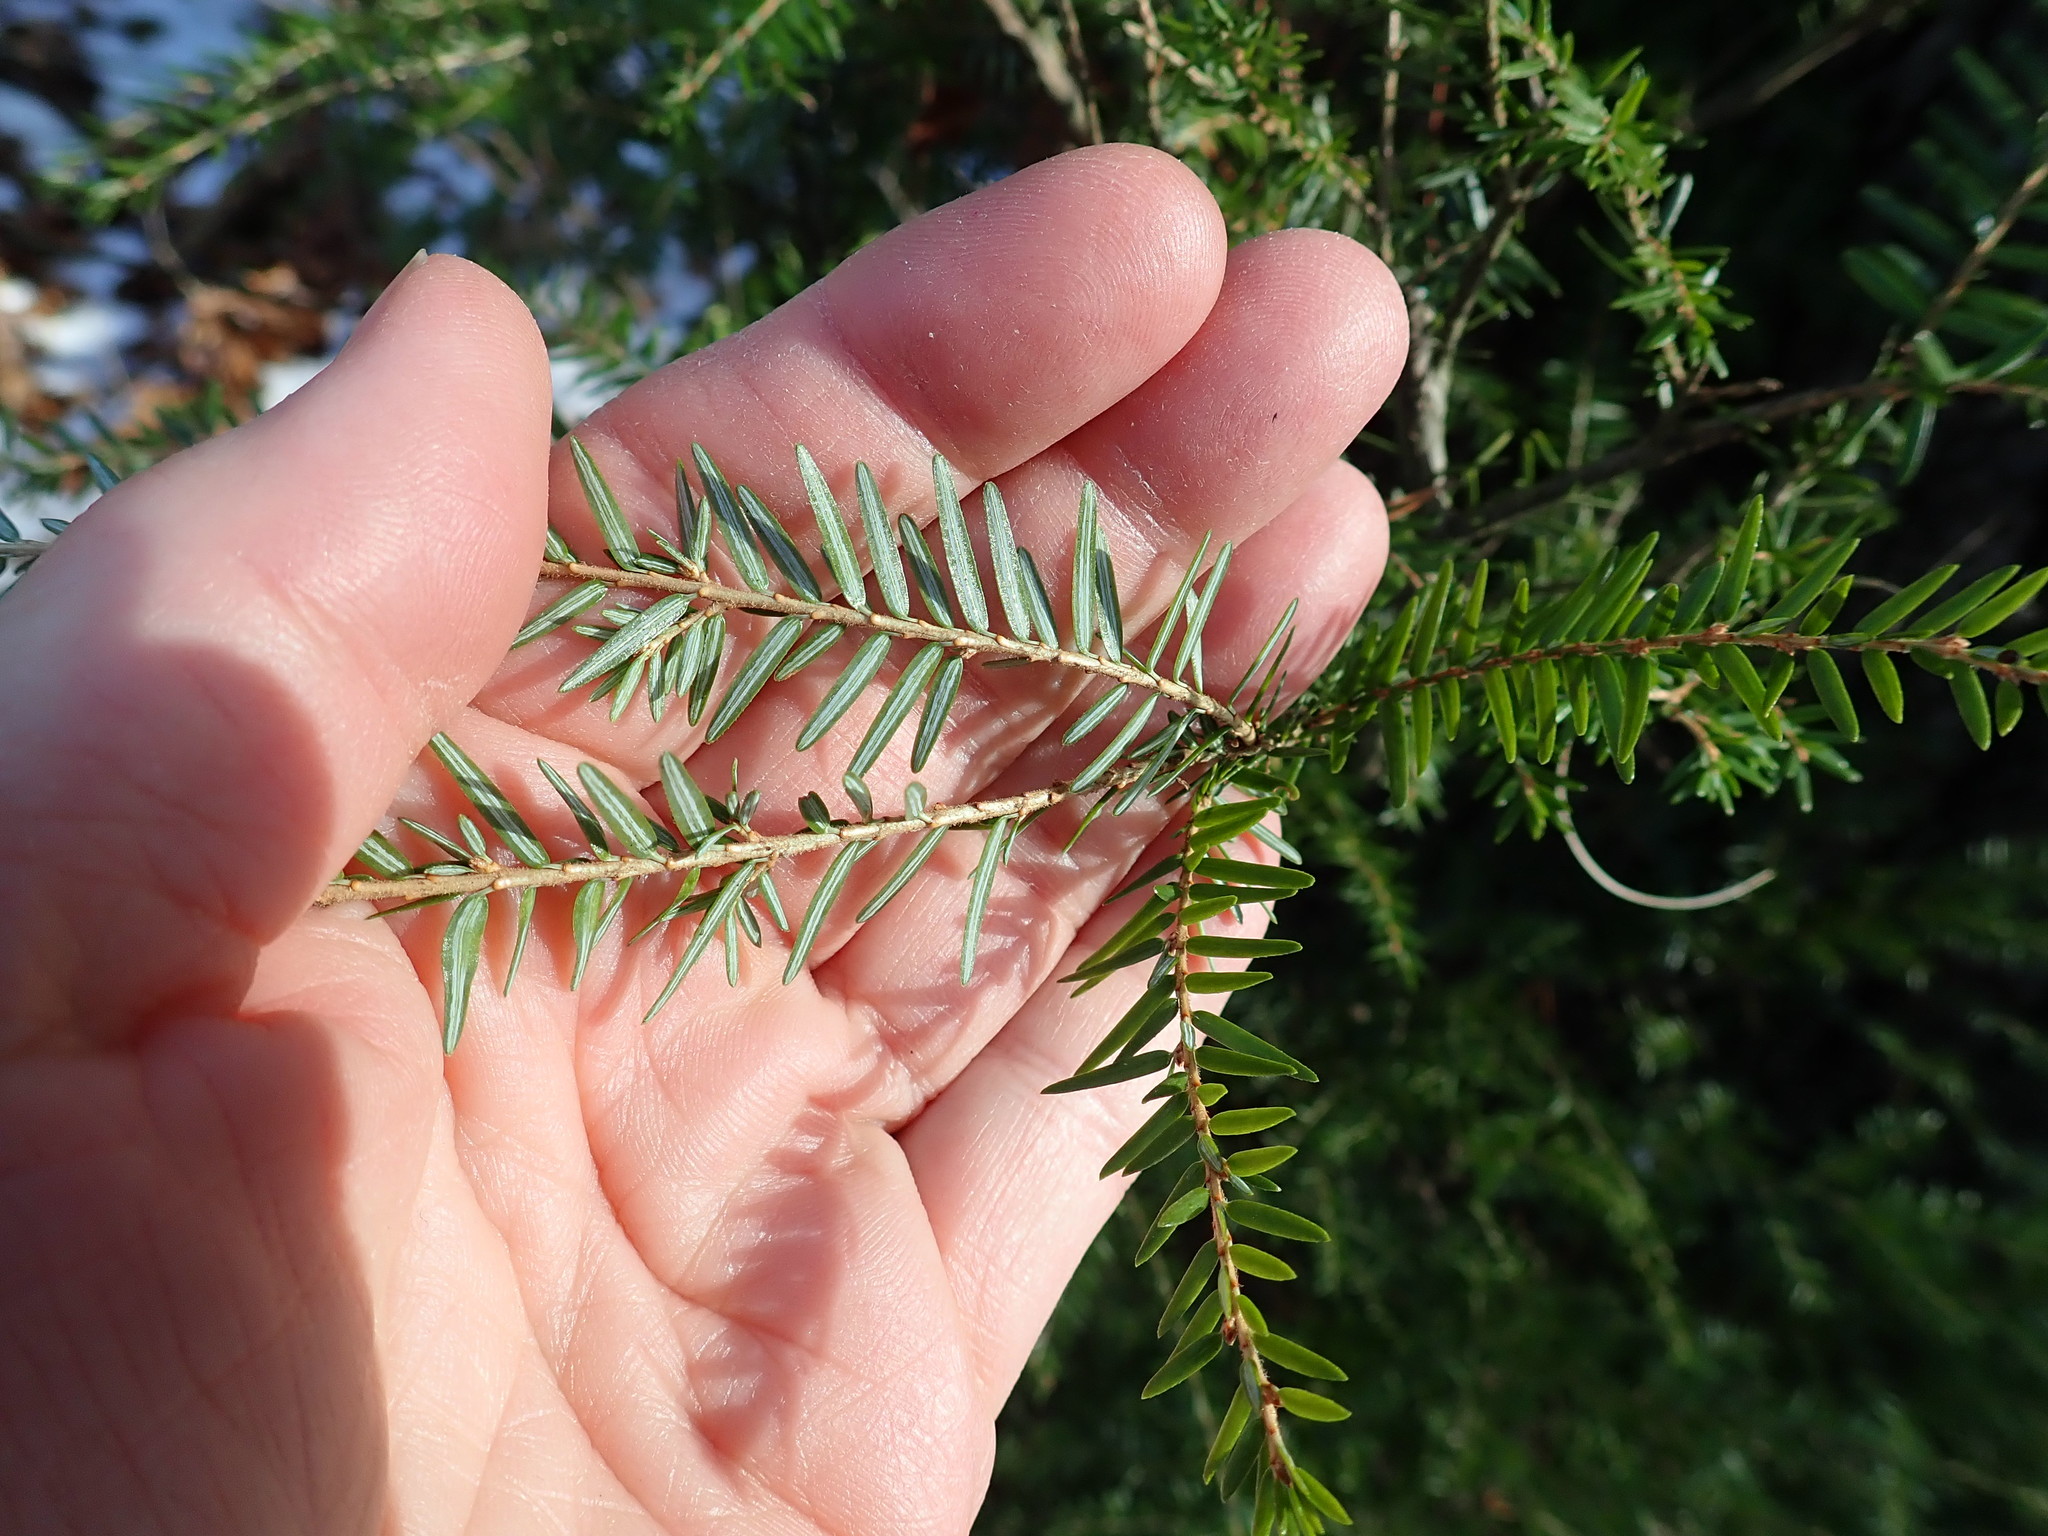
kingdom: Plantae
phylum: Tracheophyta
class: Pinopsida
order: Pinales
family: Pinaceae
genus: Tsuga
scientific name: Tsuga canadensis
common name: Eastern hemlock
